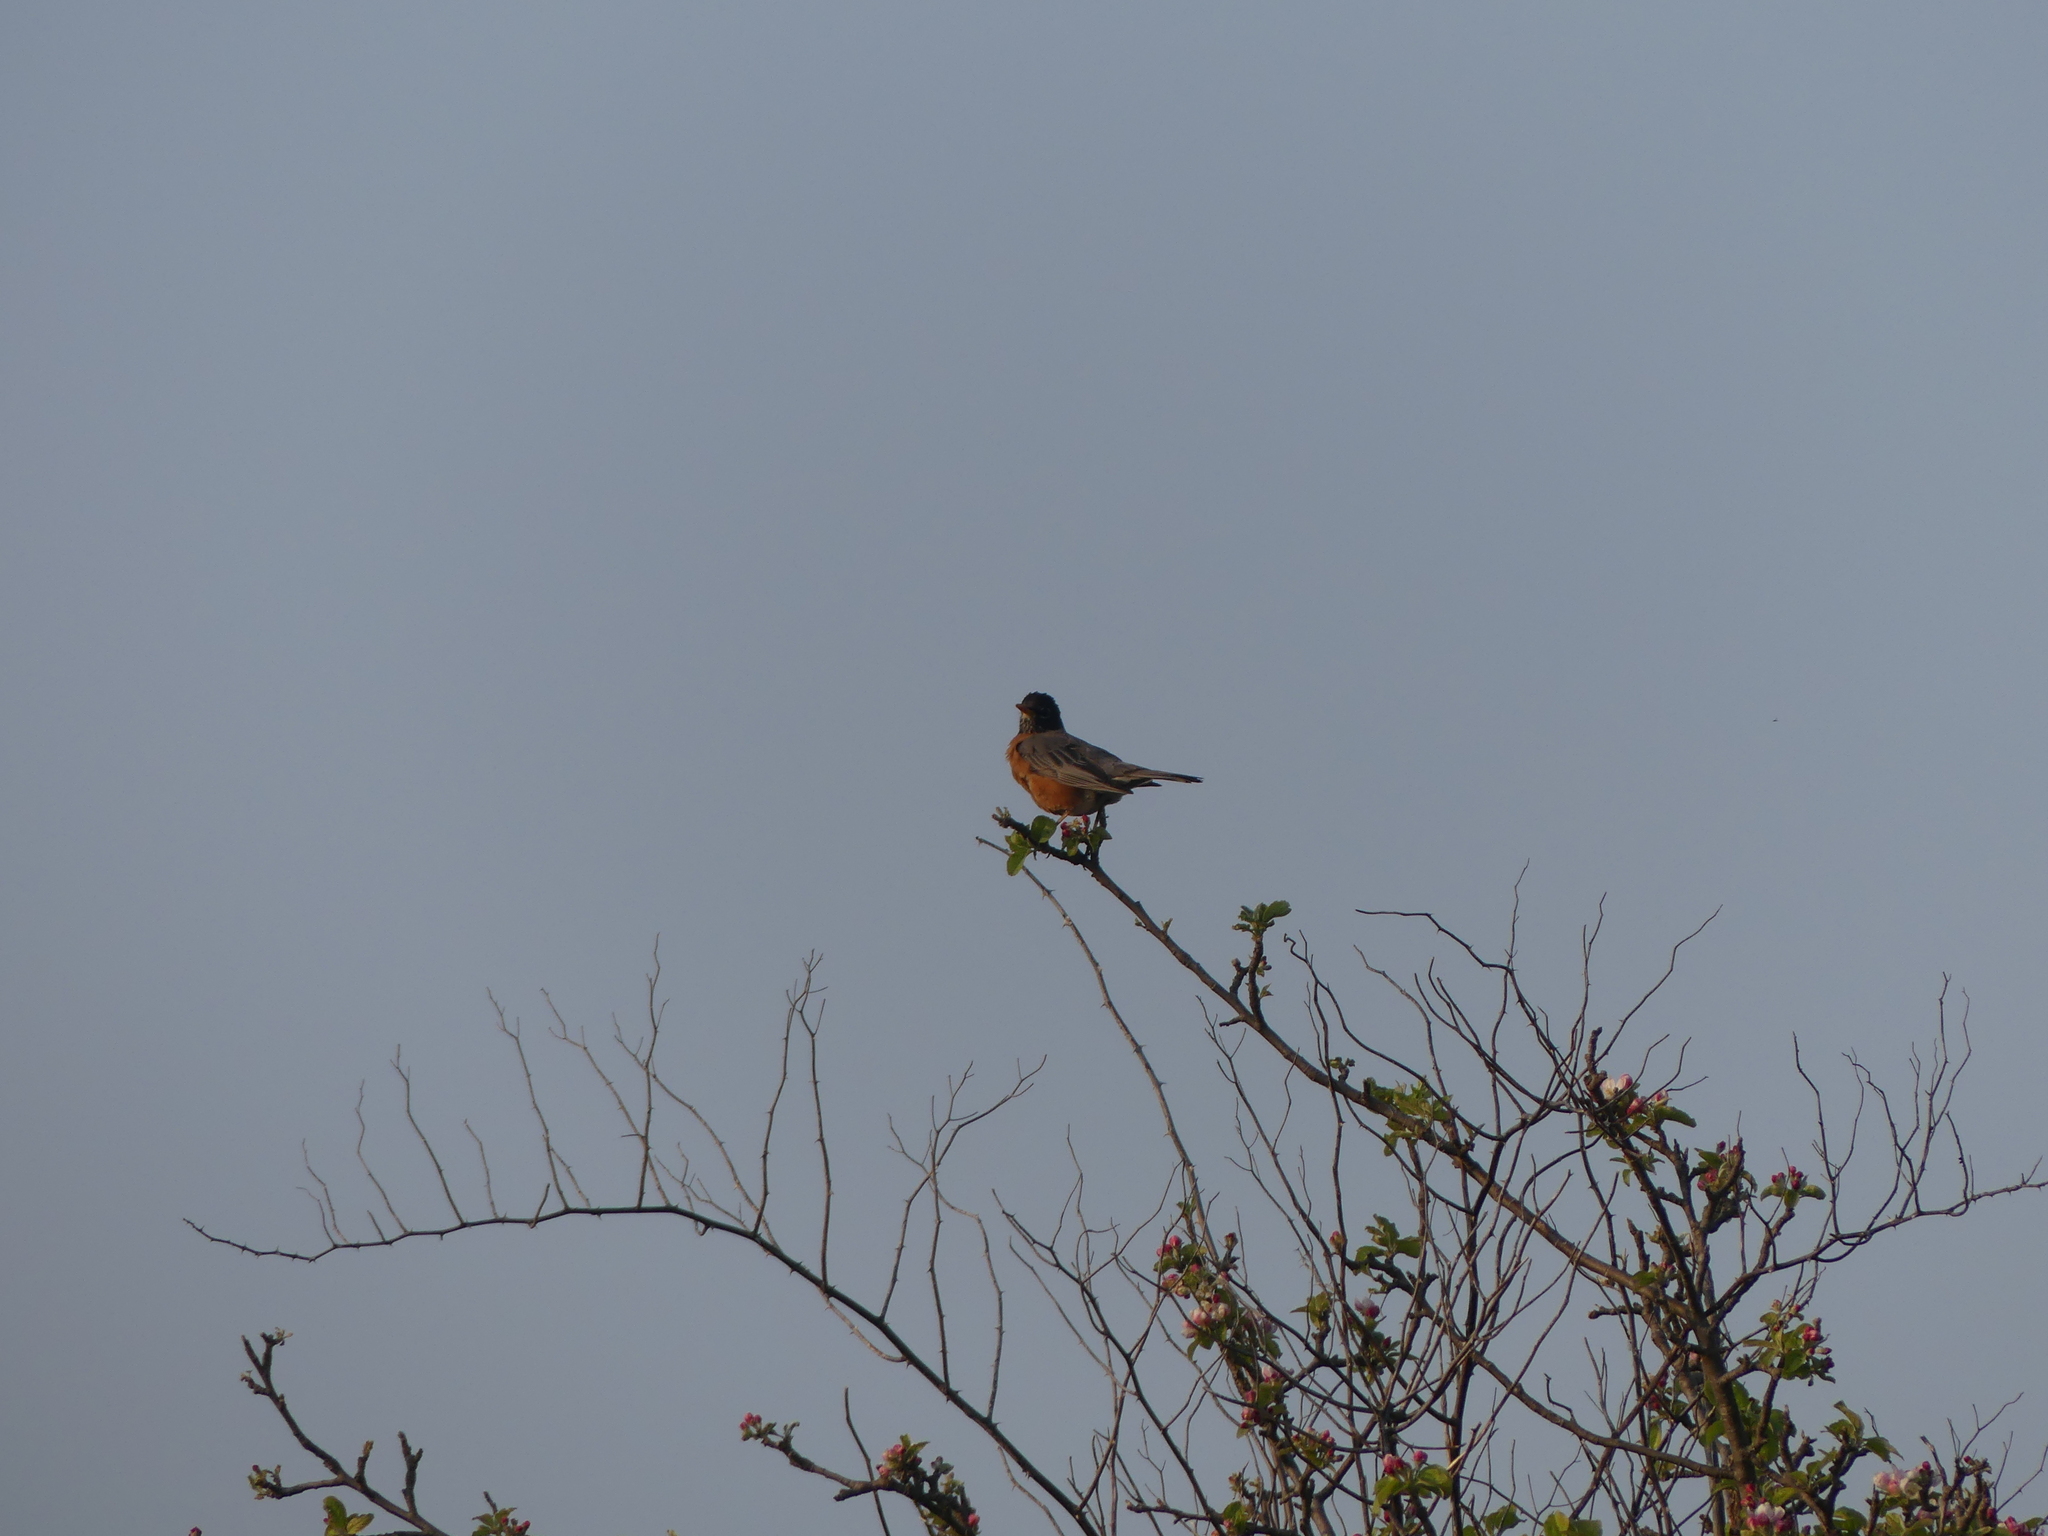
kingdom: Animalia
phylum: Chordata
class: Aves
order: Passeriformes
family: Turdidae
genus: Turdus
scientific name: Turdus migratorius
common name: American robin
